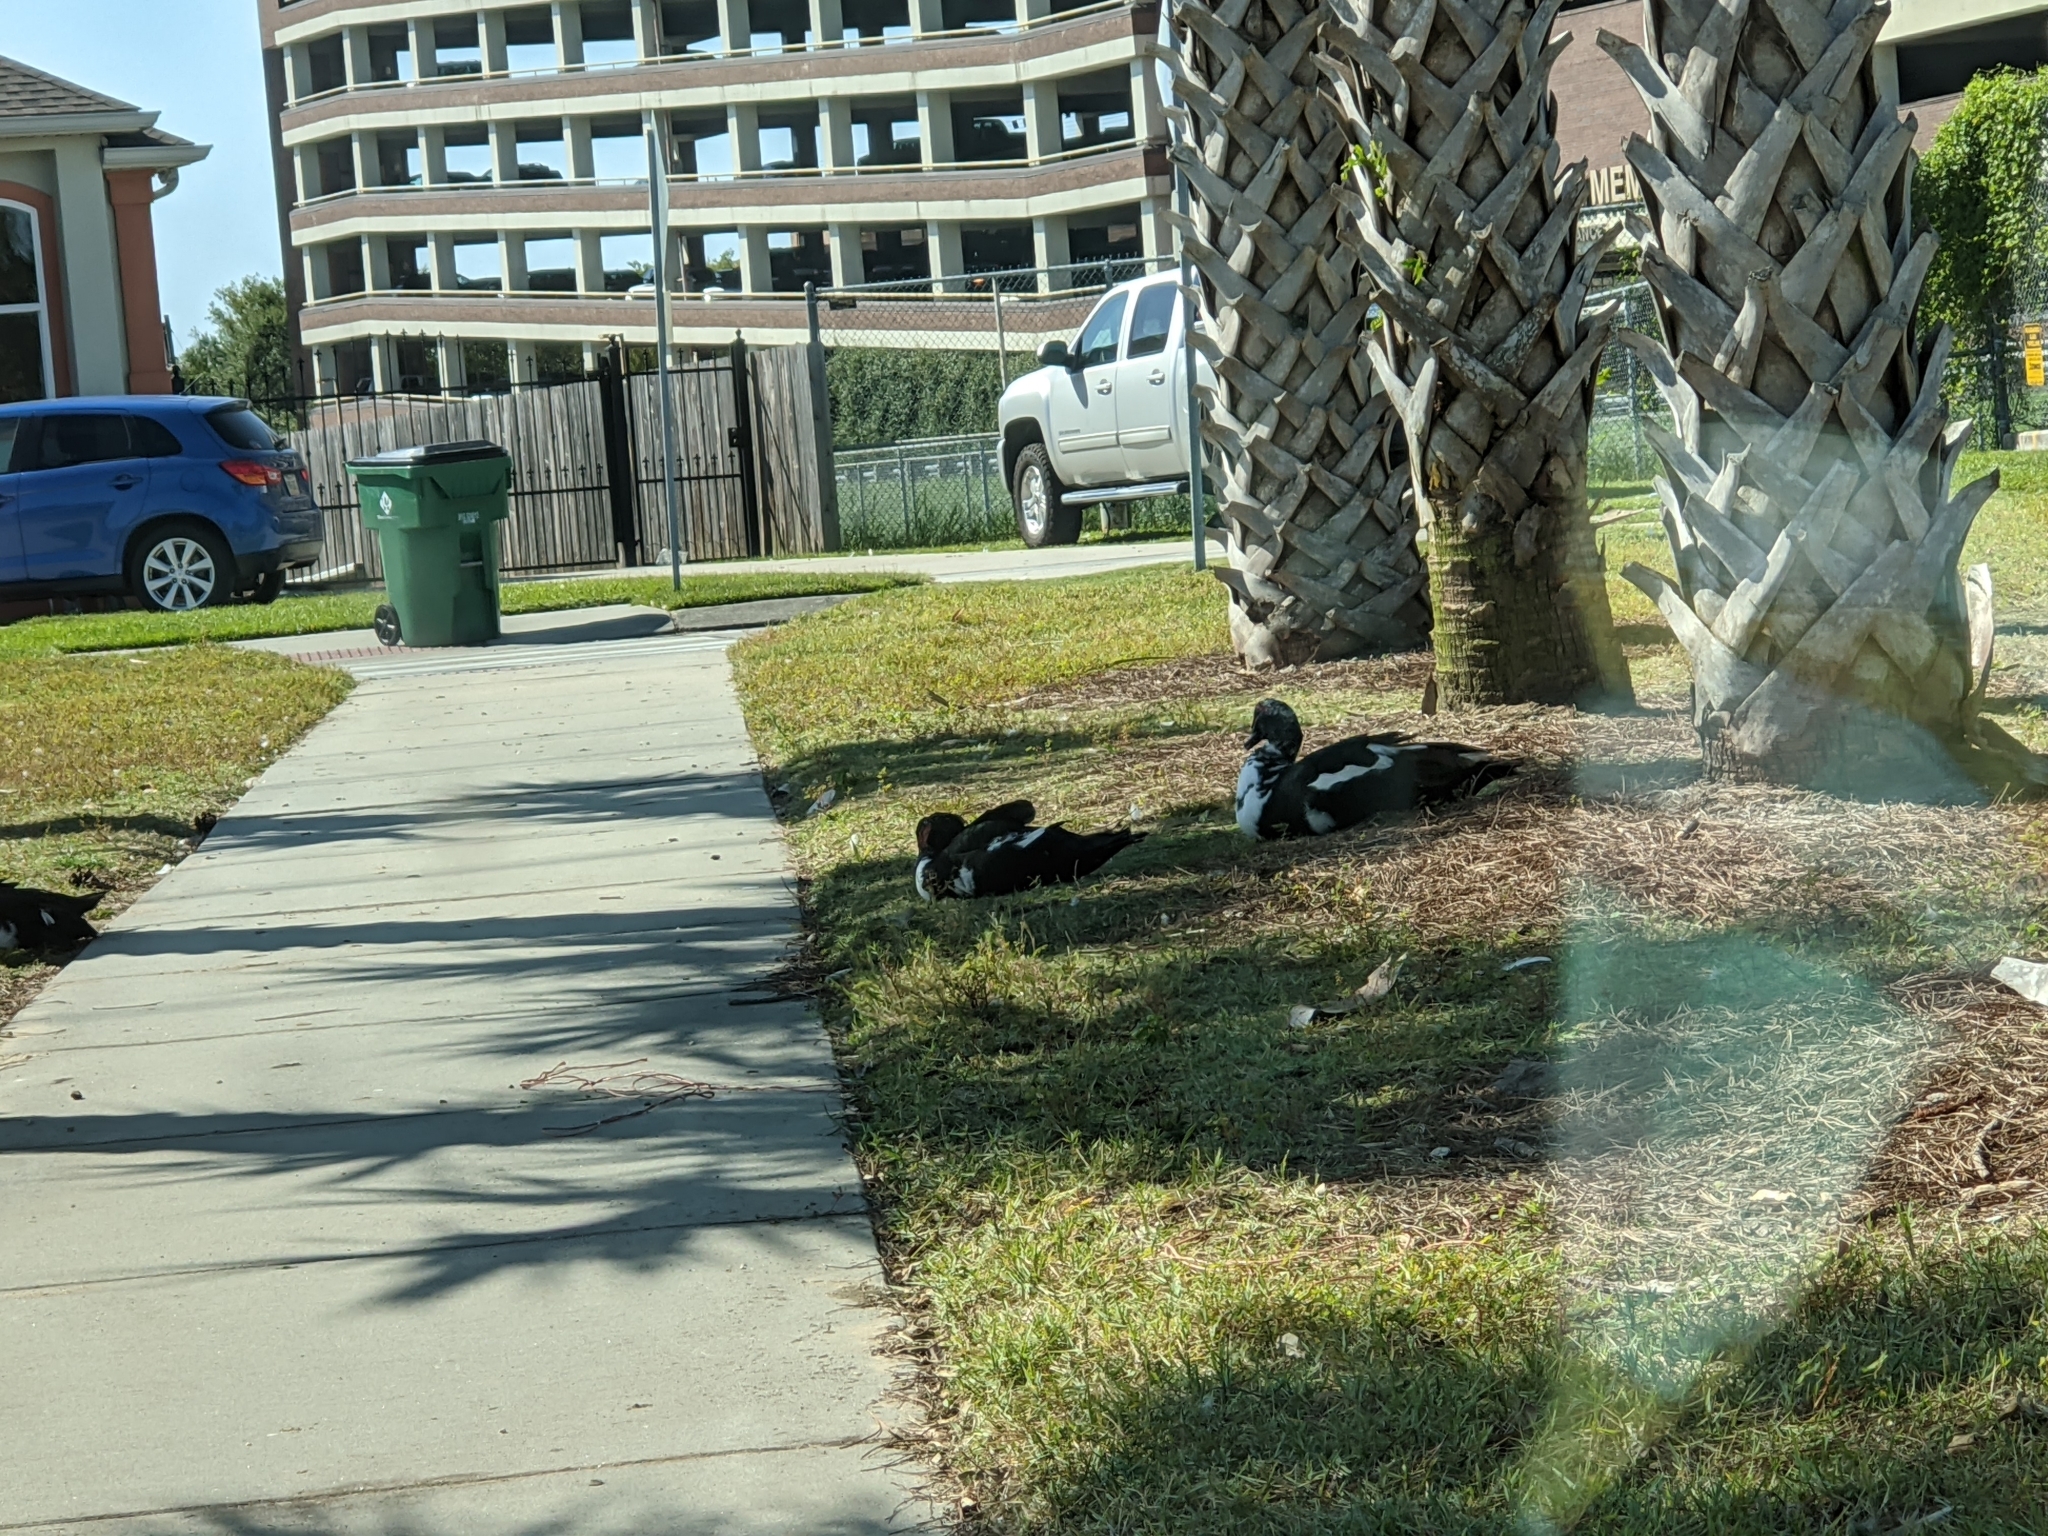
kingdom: Animalia
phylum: Chordata
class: Aves
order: Anseriformes
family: Anatidae
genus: Cairina
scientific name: Cairina moschata
